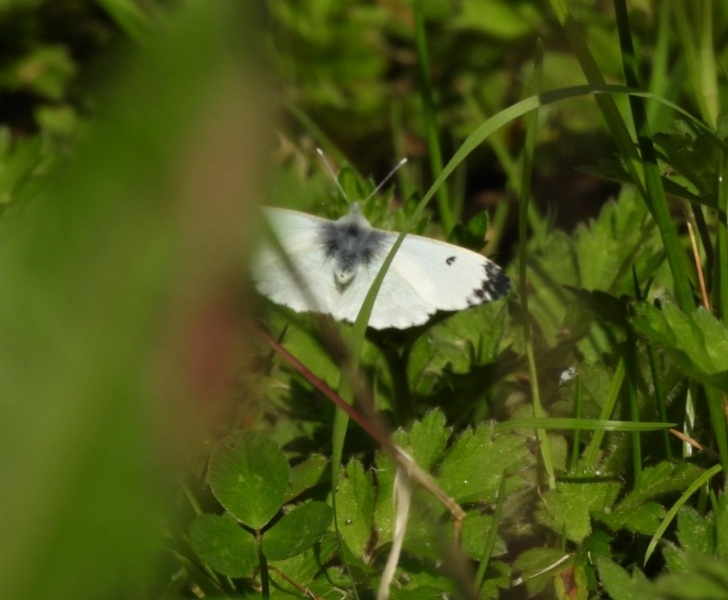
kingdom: Animalia
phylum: Arthropoda
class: Insecta
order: Lepidoptera
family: Pieridae
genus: Anthocharis
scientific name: Anthocharis cardamines
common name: Orange-tip
